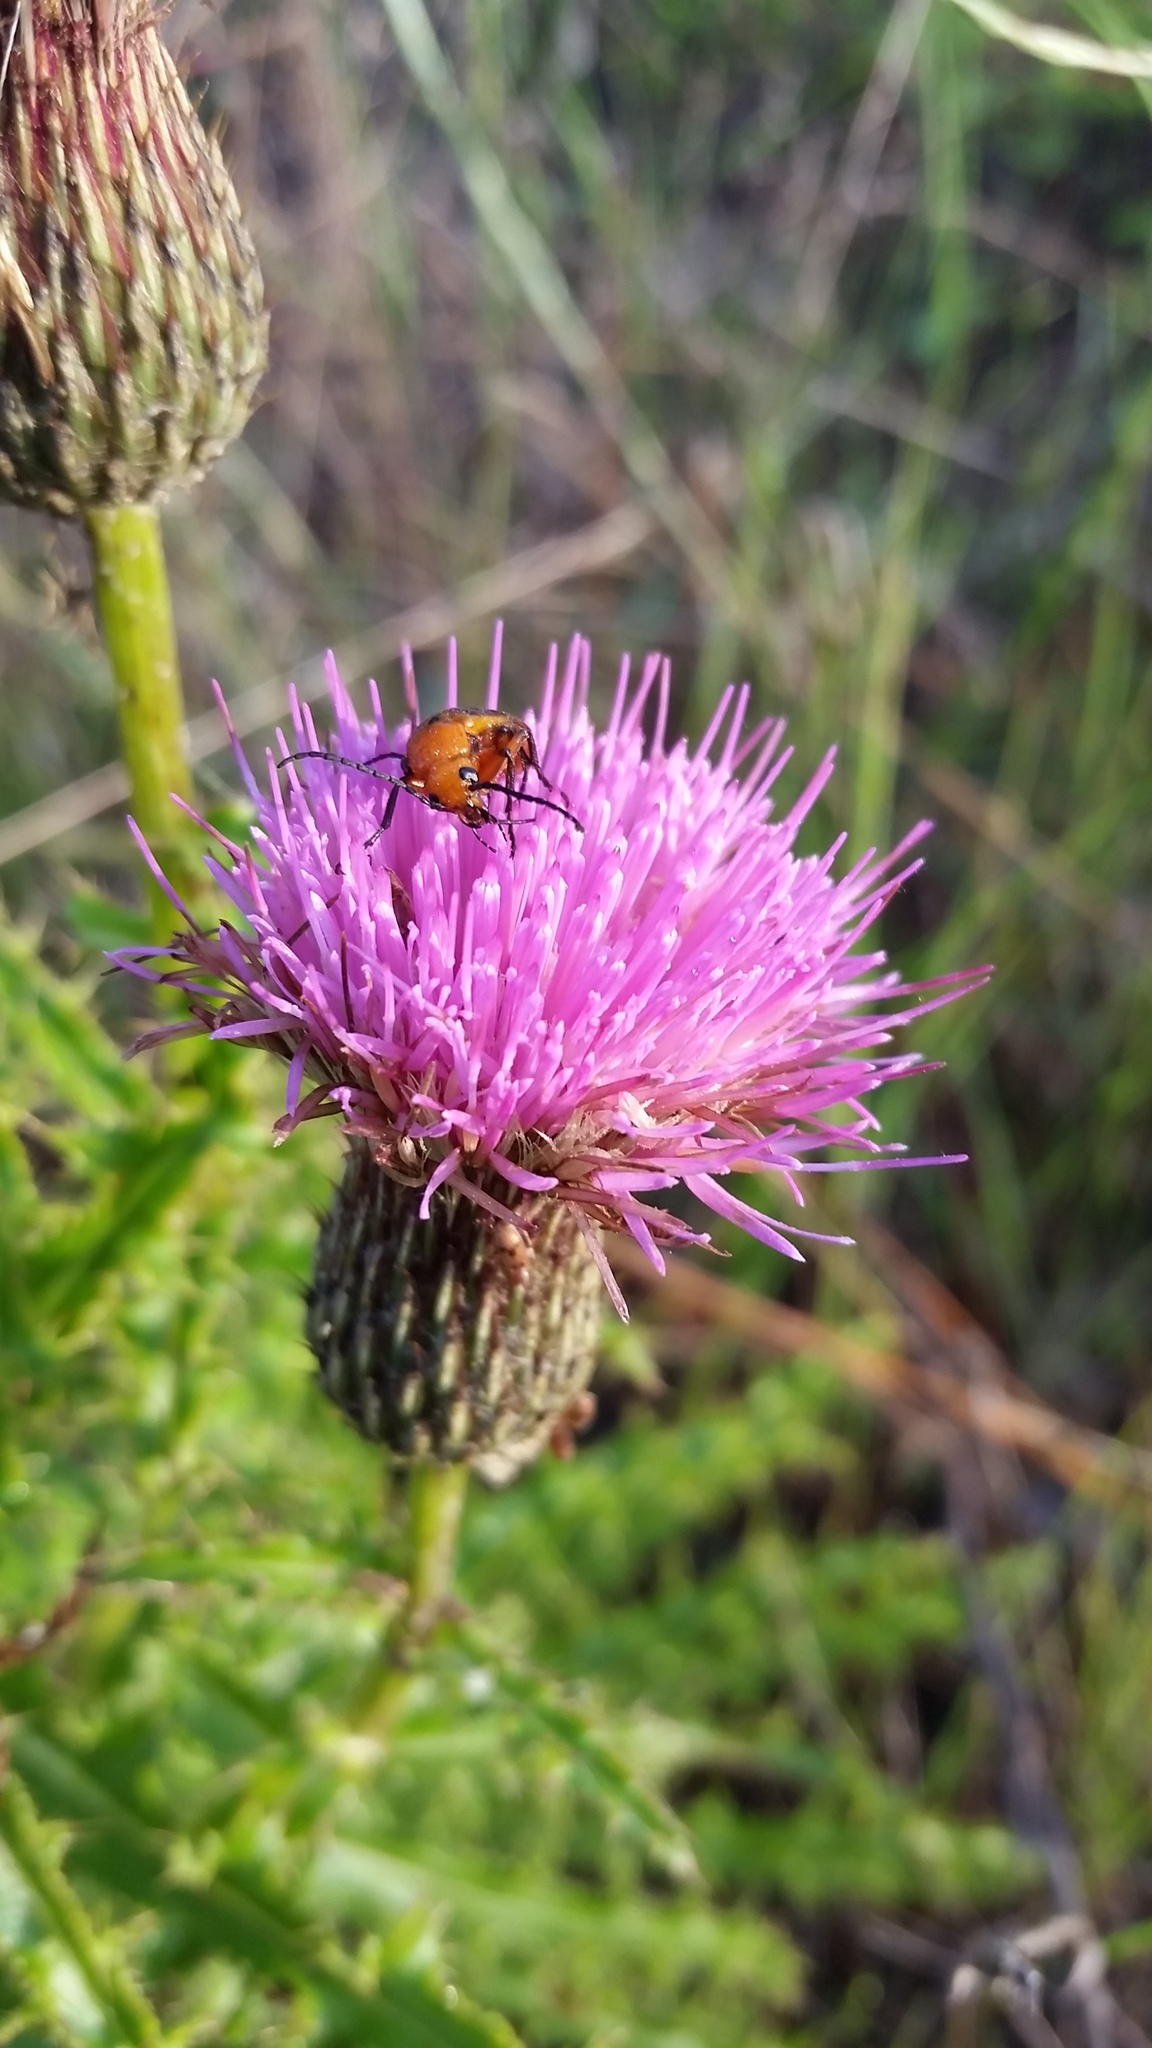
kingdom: Plantae
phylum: Tracheophyta
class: Magnoliopsida
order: Asterales
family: Asteraceae
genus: Cirsium
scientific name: Cirsium repandum
